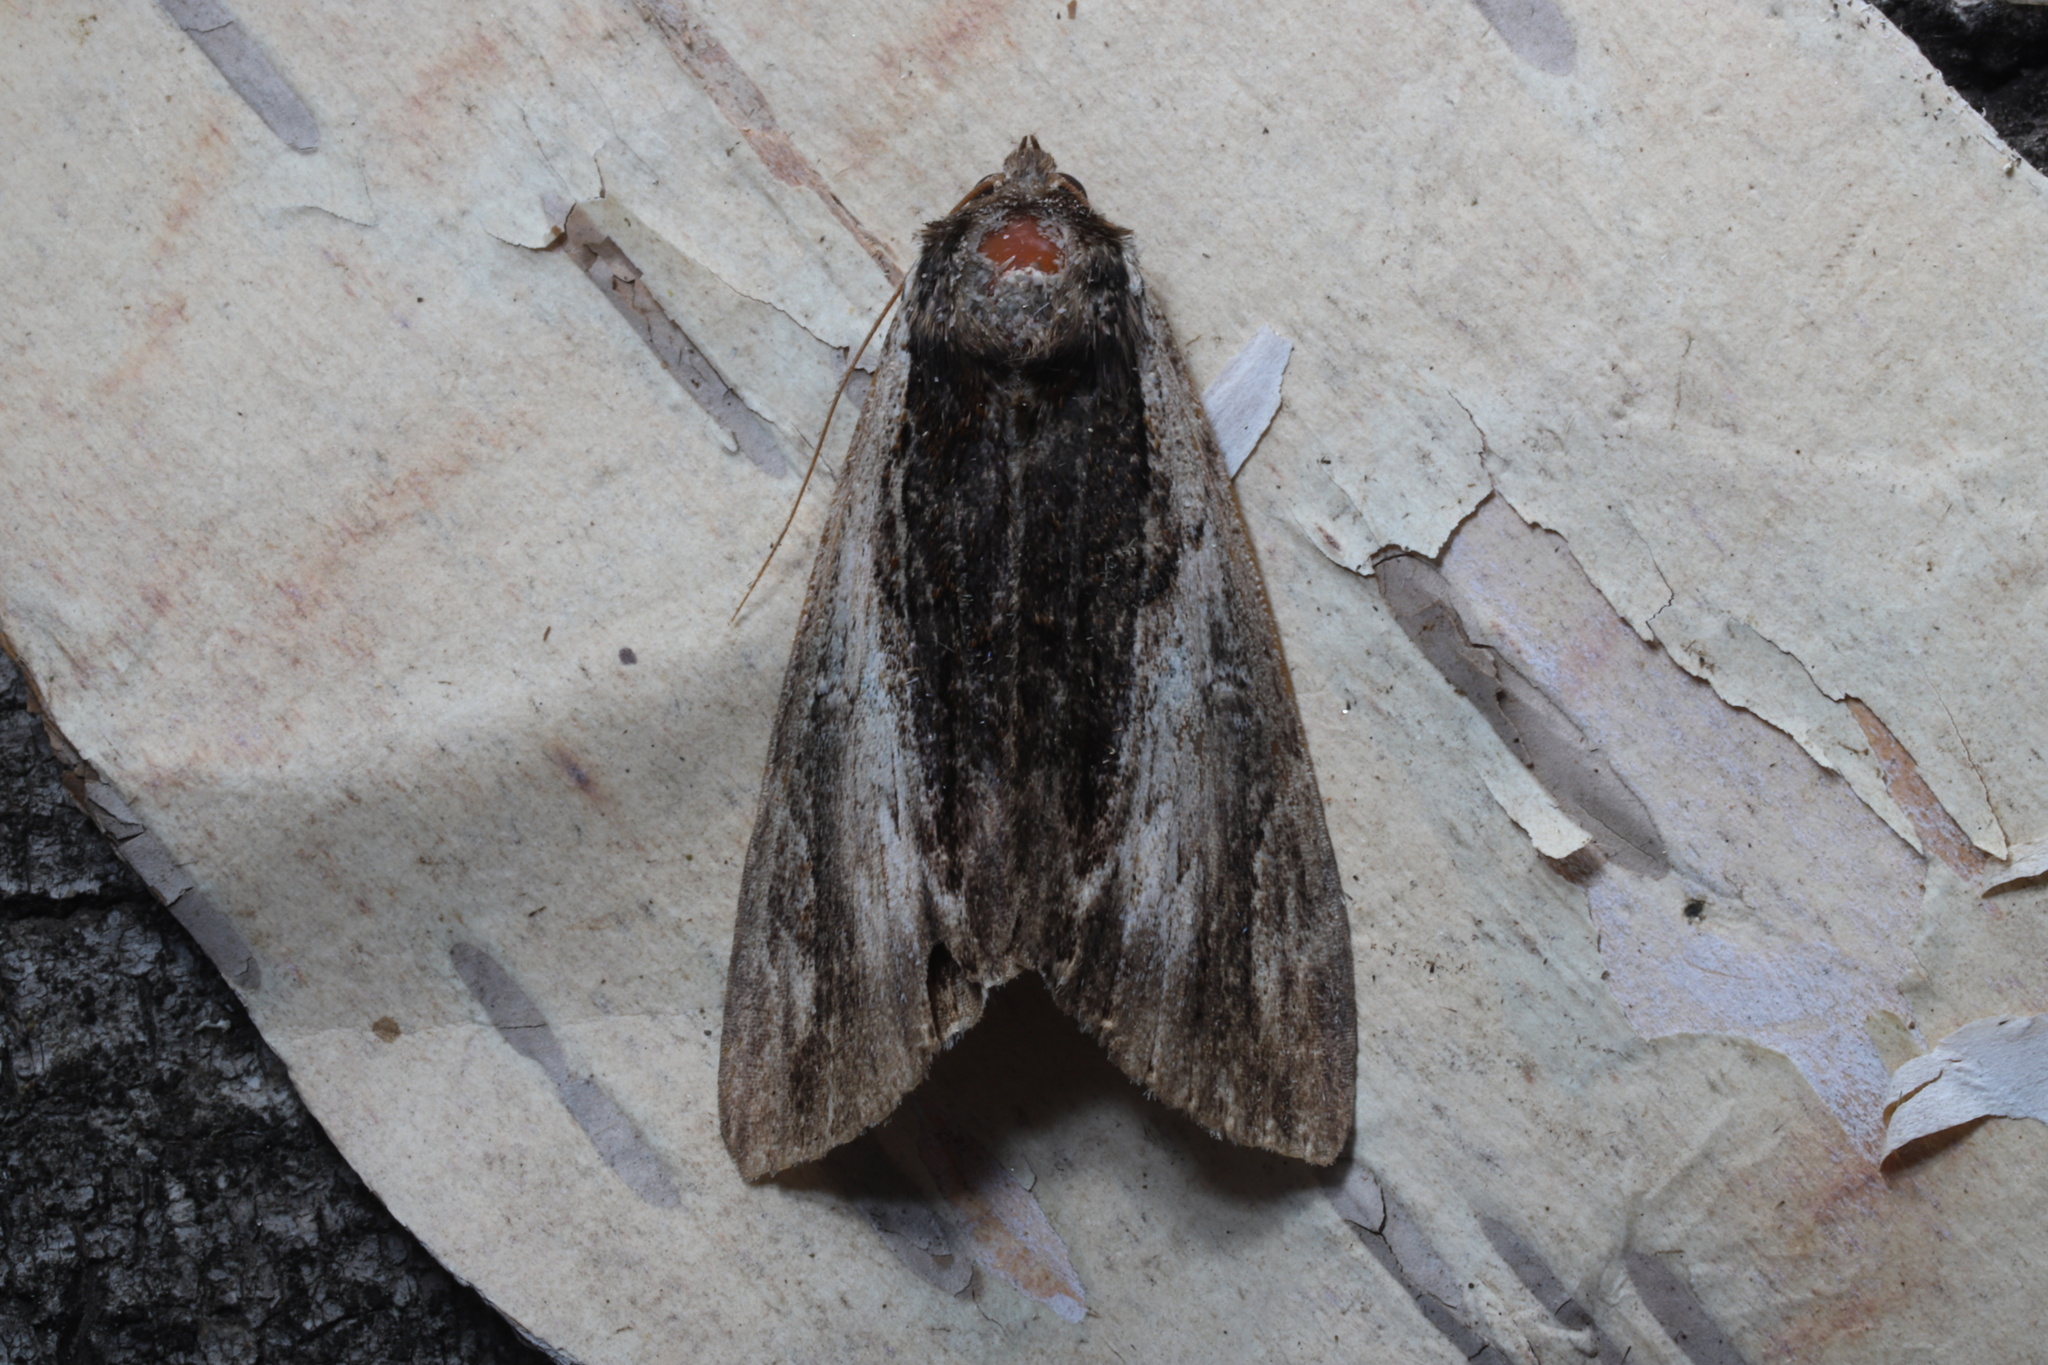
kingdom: Animalia
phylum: Arthropoda
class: Insecta
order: Lepidoptera
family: Erebidae
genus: Catocala
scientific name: Catocala ultronia
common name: Ultronia underwing
